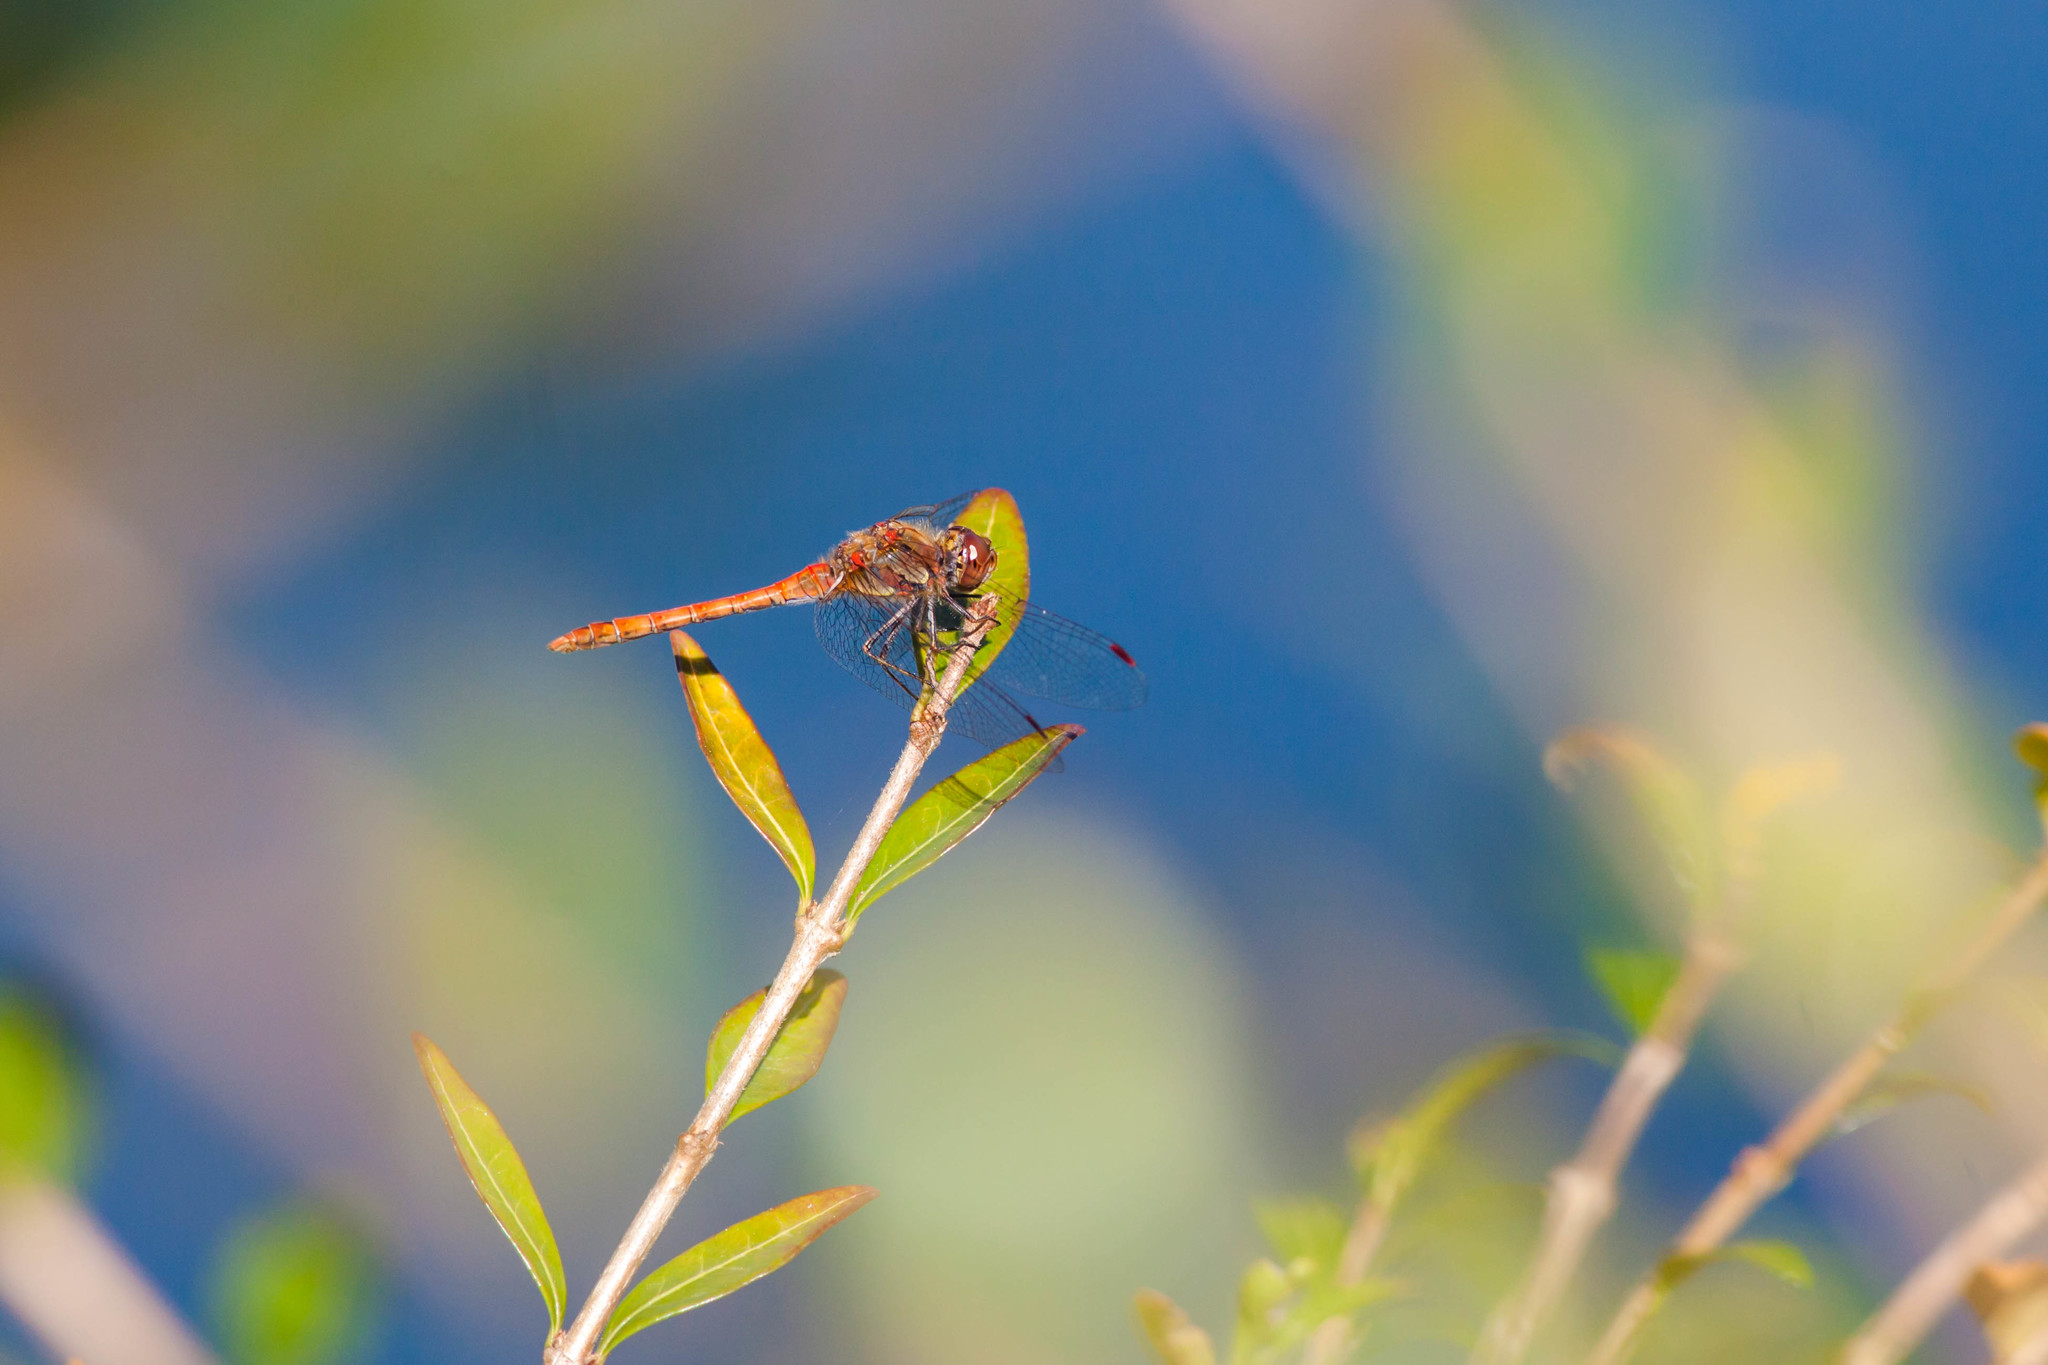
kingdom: Animalia
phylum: Arthropoda
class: Insecta
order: Odonata
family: Libellulidae
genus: Sympetrum
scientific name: Sympetrum striolatum
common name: Common darter
